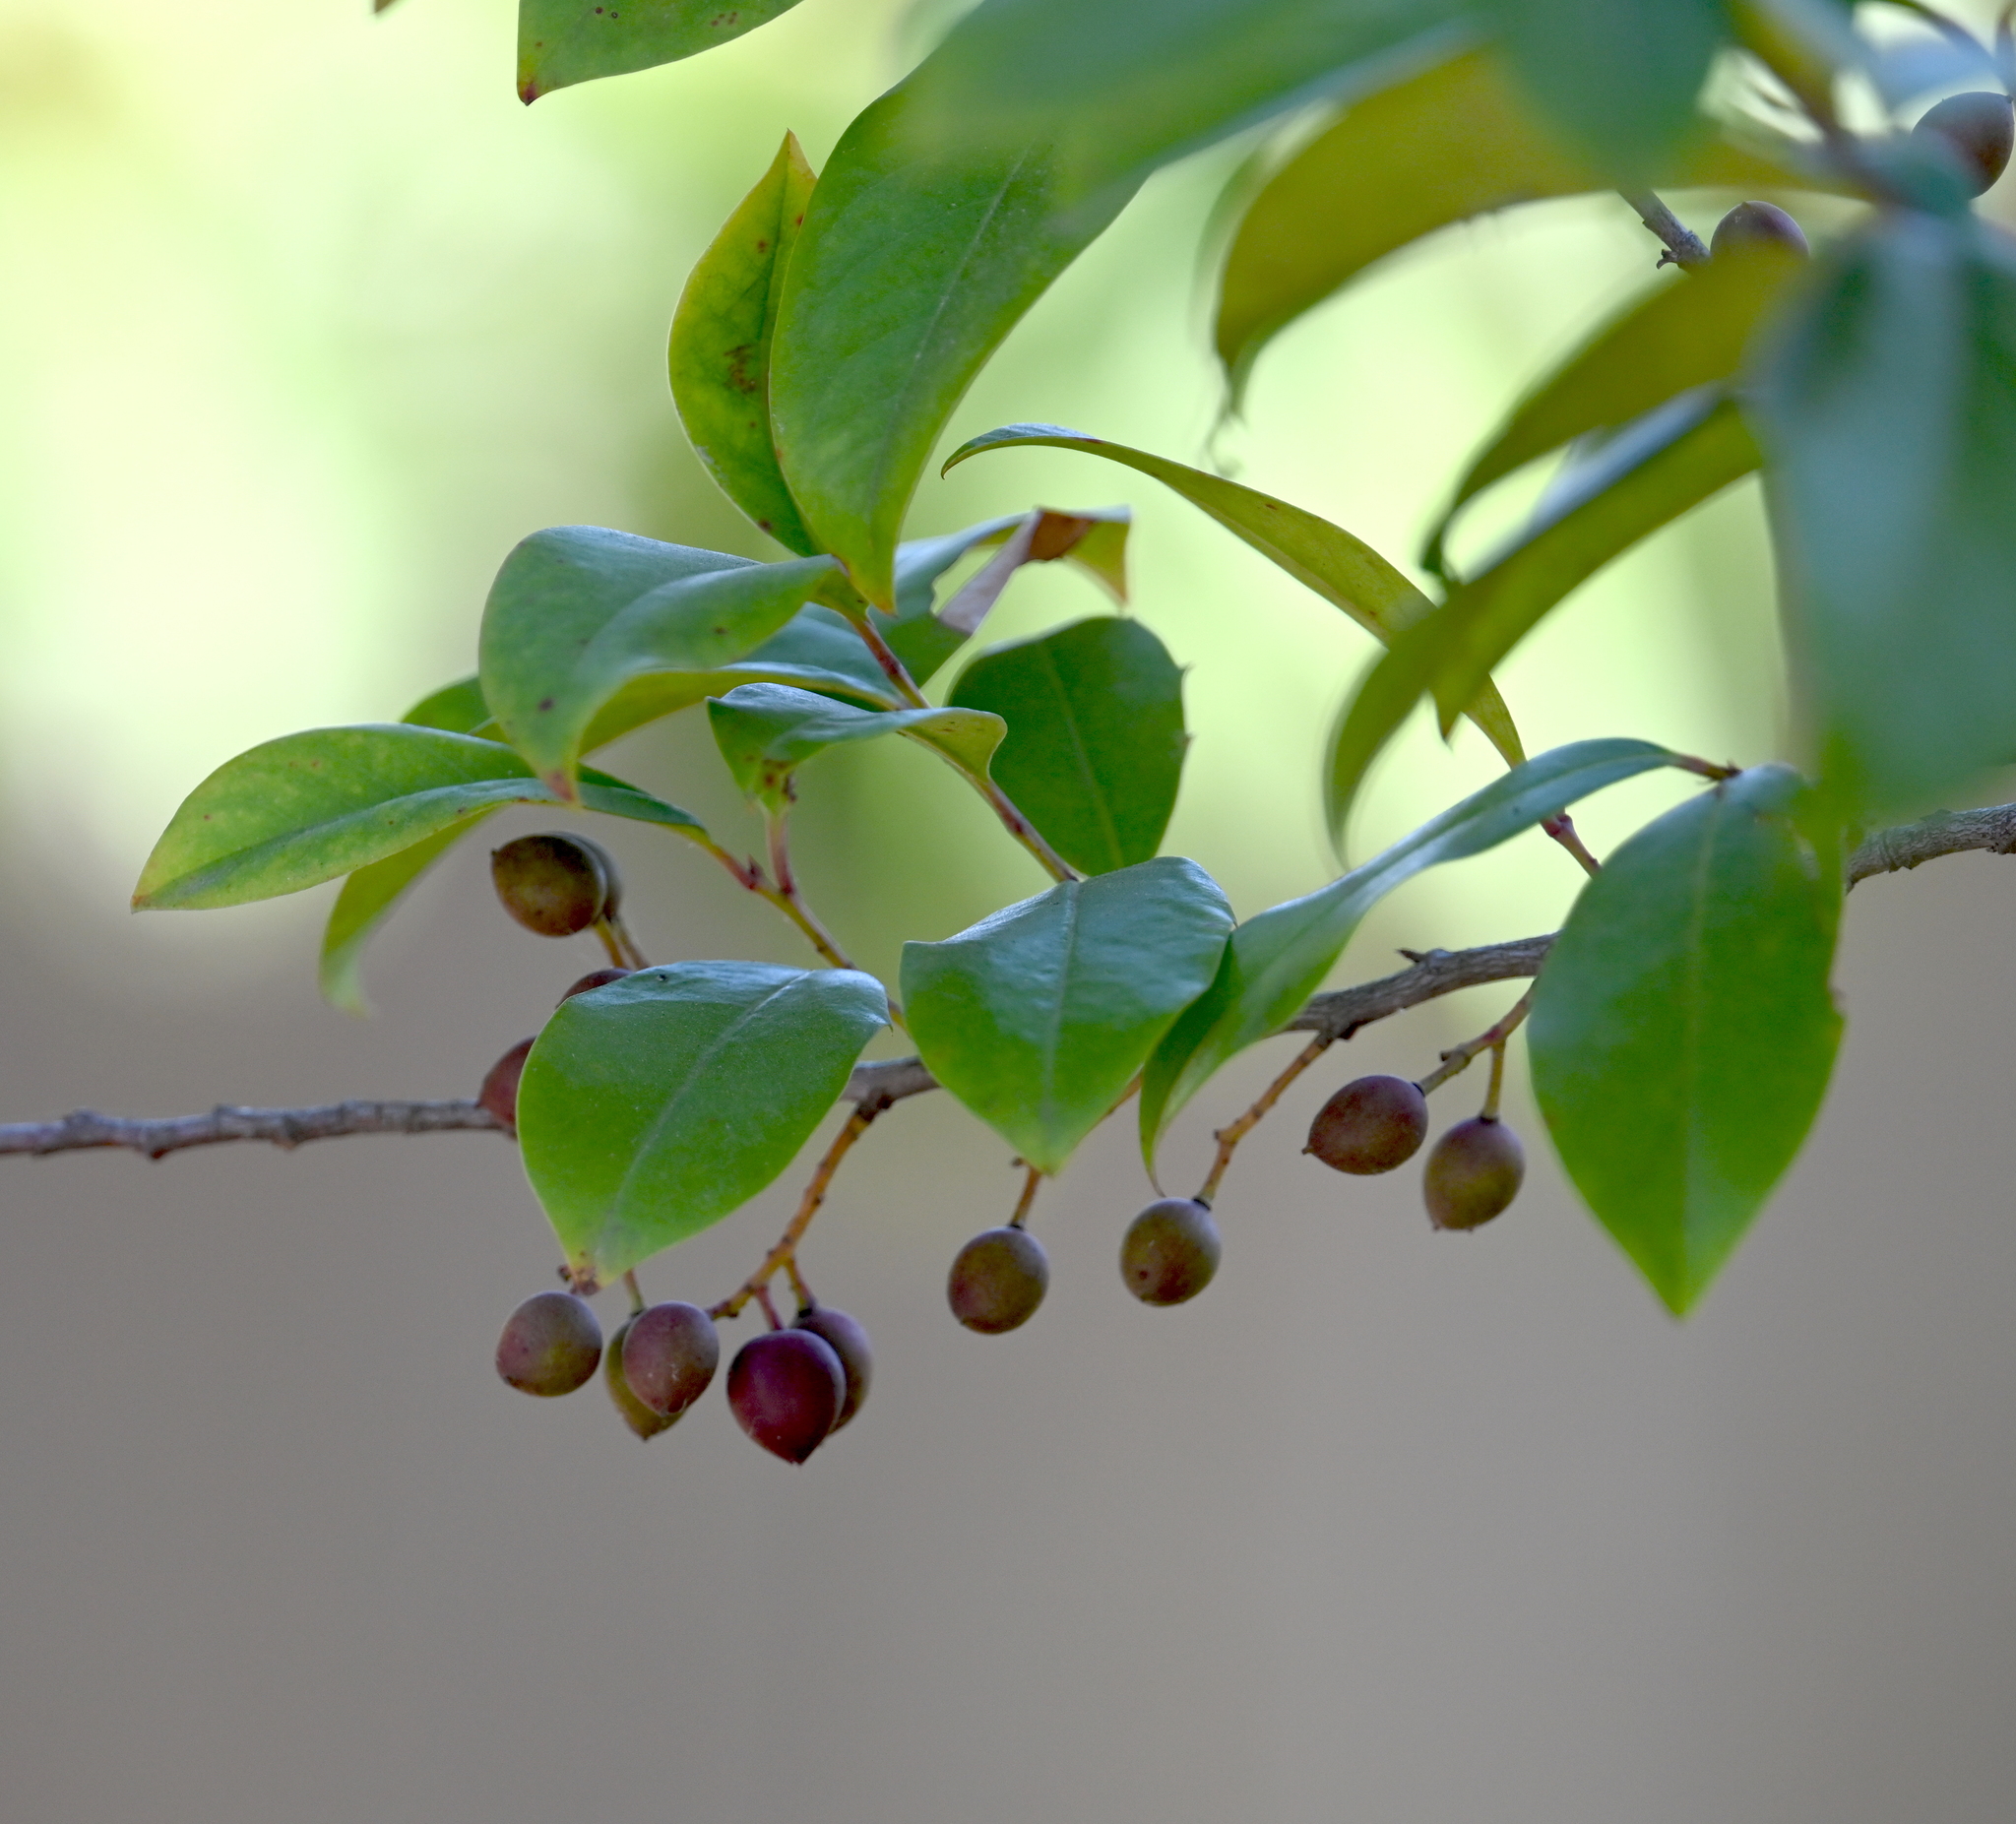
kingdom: Plantae
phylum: Tracheophyta
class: Magnoliopsida
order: Rosales
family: Rosaceae
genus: Prunus
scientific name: Prunus caroliniana
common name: Carolina laurel cherry
